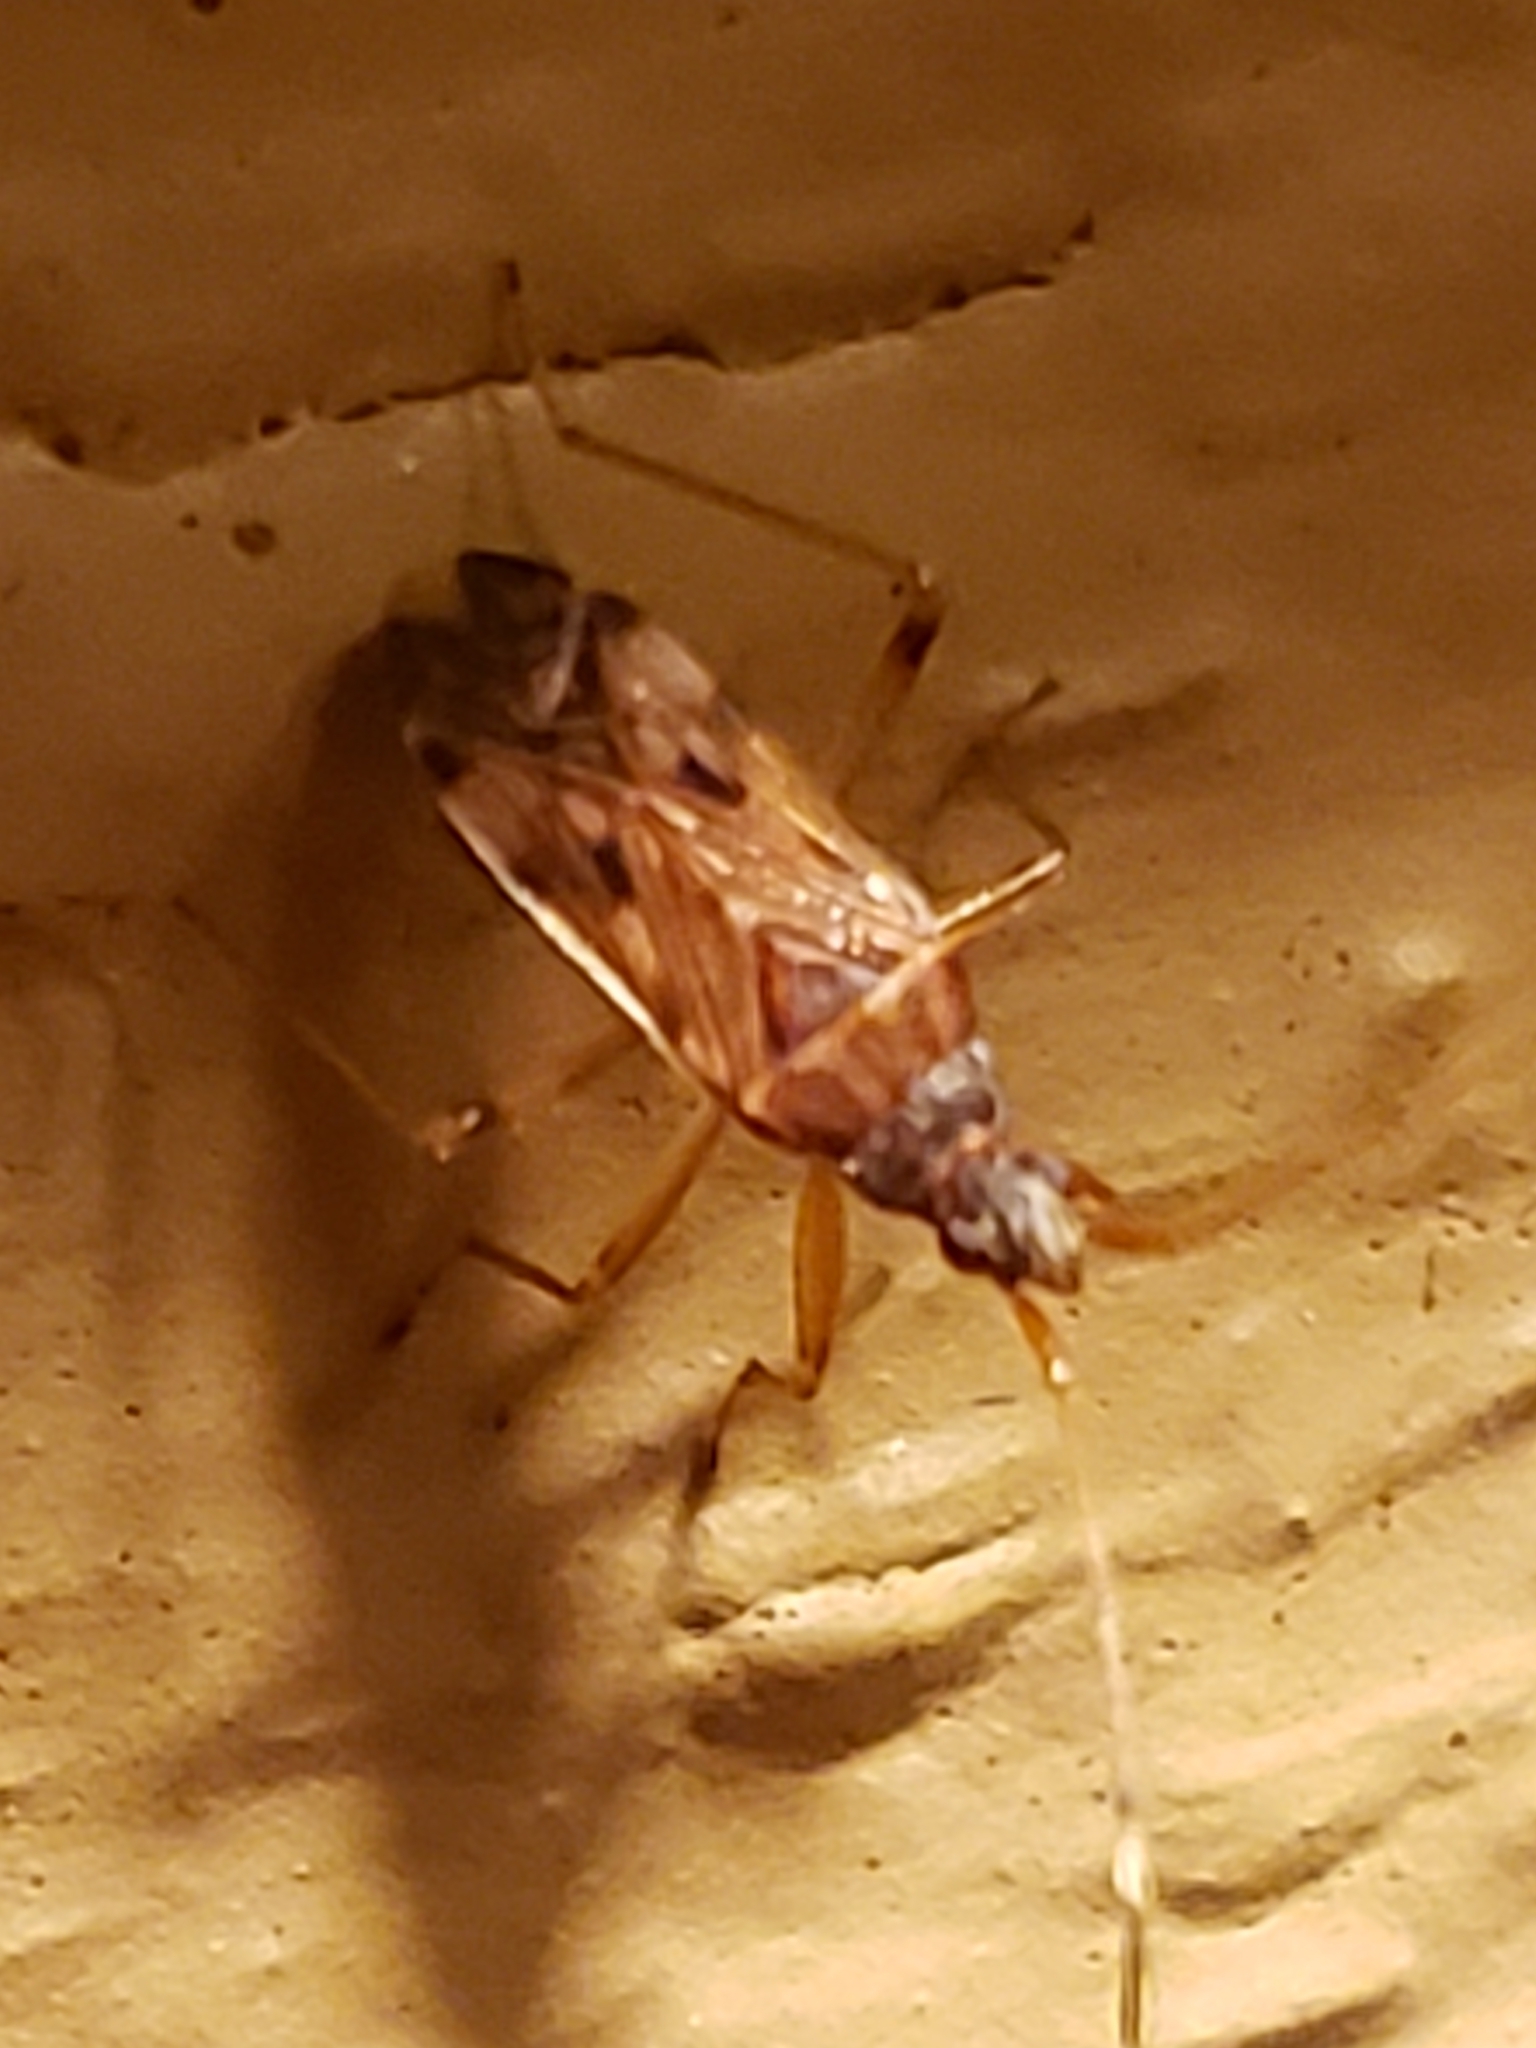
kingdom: Animalia
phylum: Arthropoda
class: Insecta
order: Hemiptera
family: Rhyparochromidae
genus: Ozophora
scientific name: Ozophora picturata
